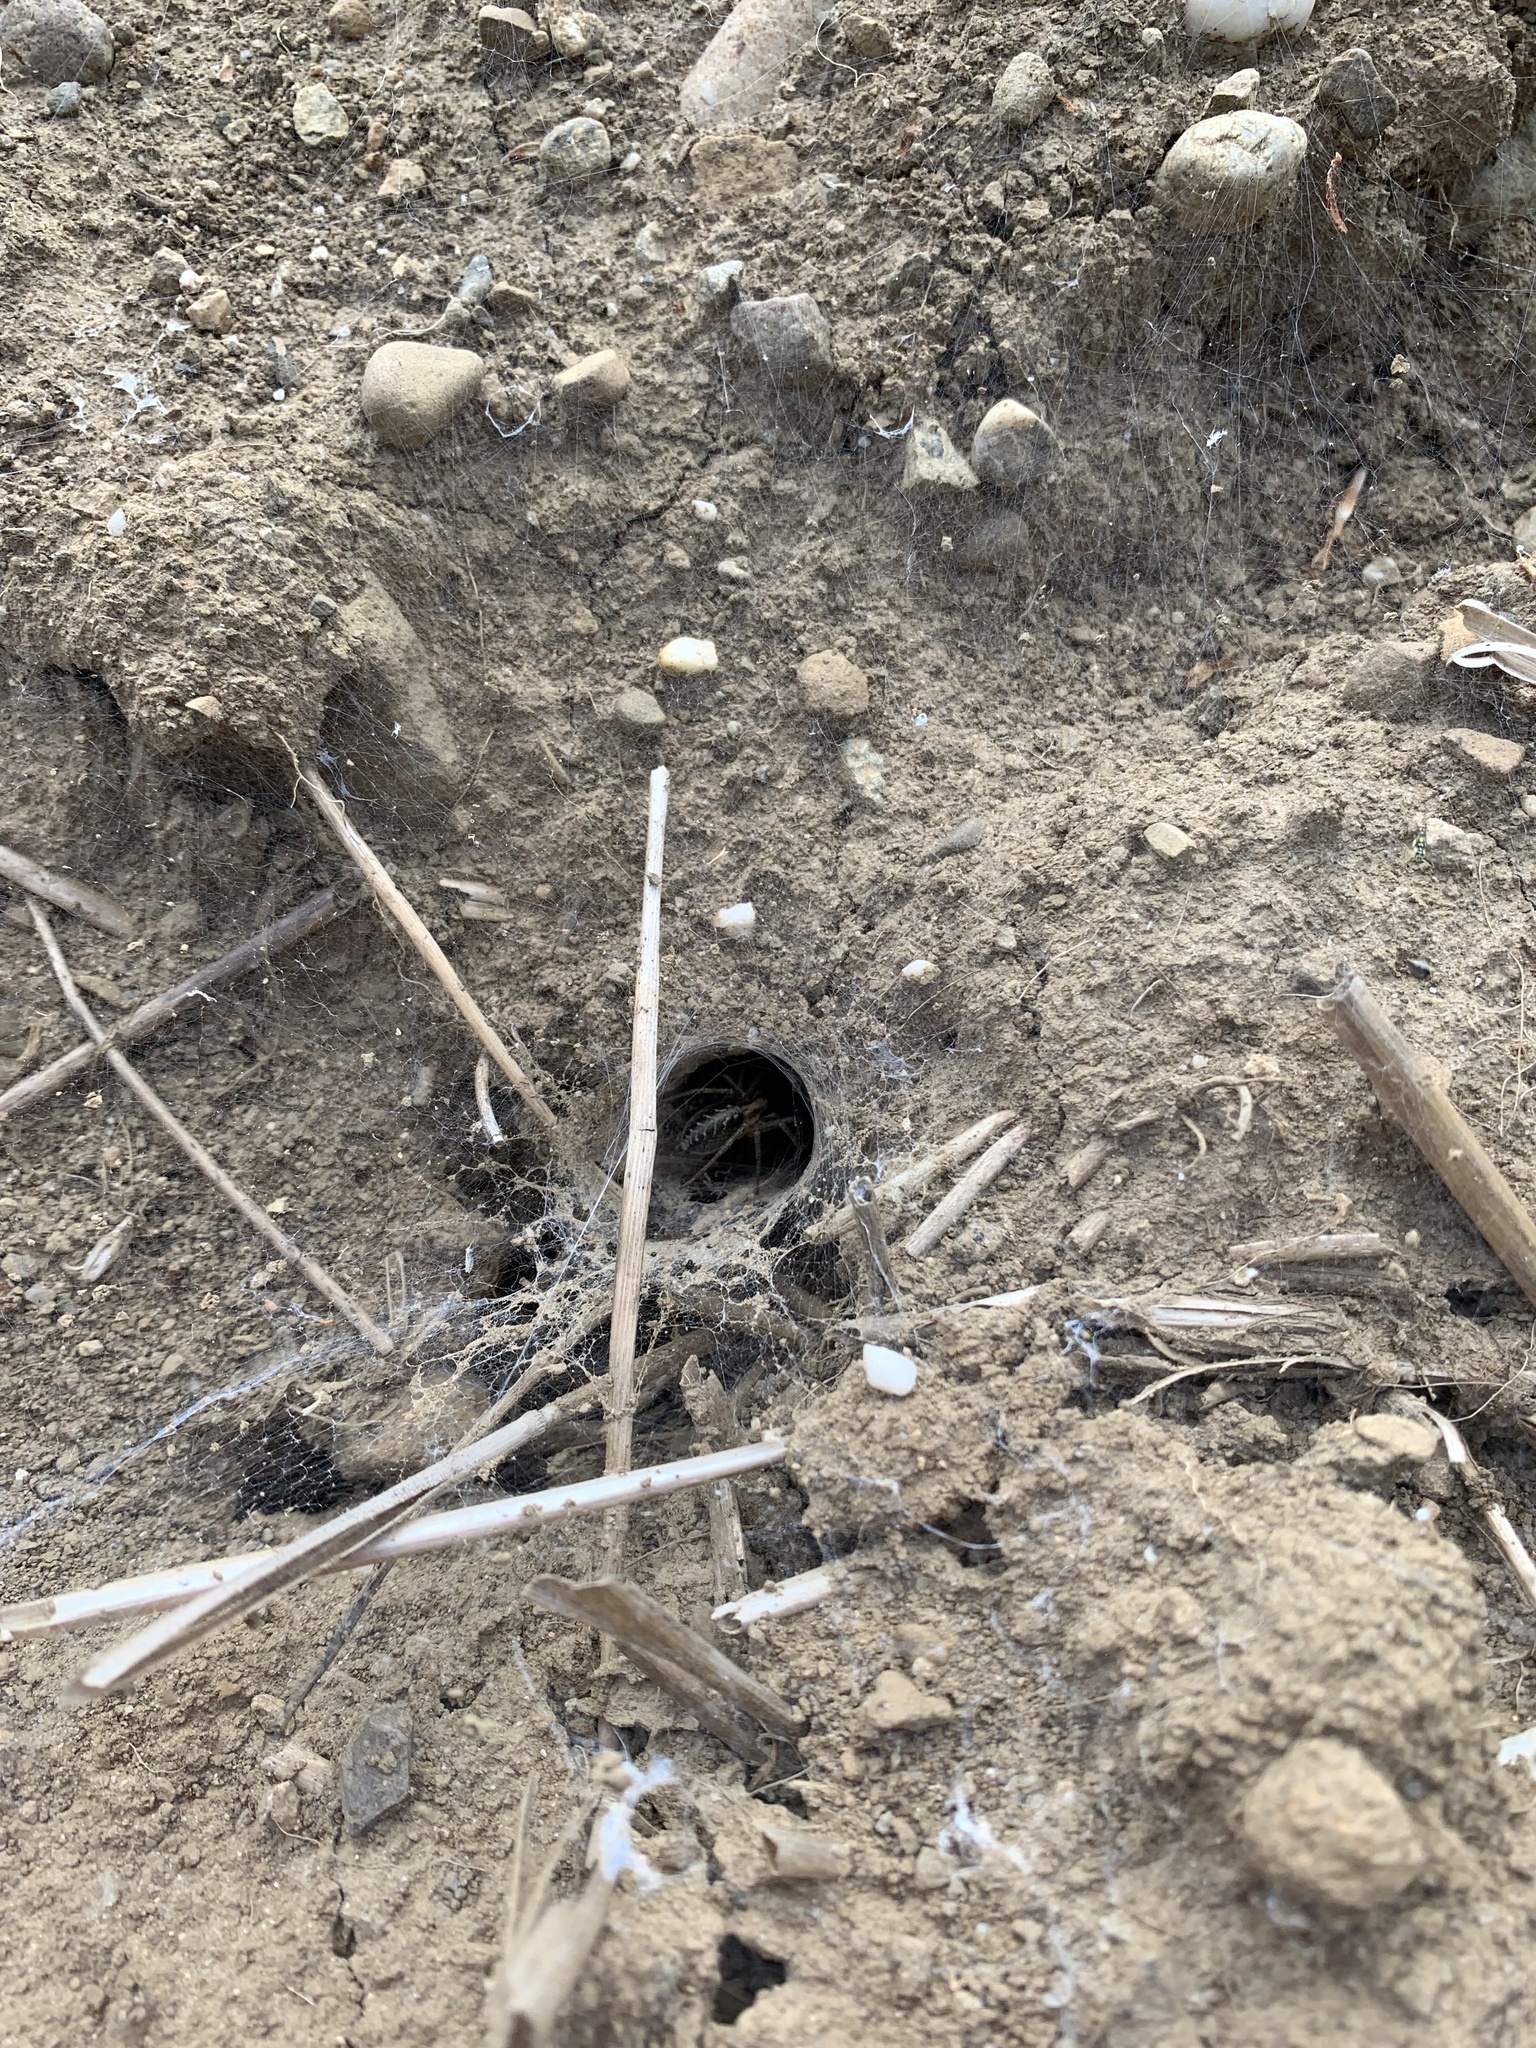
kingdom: Animalia
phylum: Arthropoda
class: Arachnida
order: Araneae
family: Agelenidae
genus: Agelena
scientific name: Agelena labyrinthica
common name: Labyrinth spider
